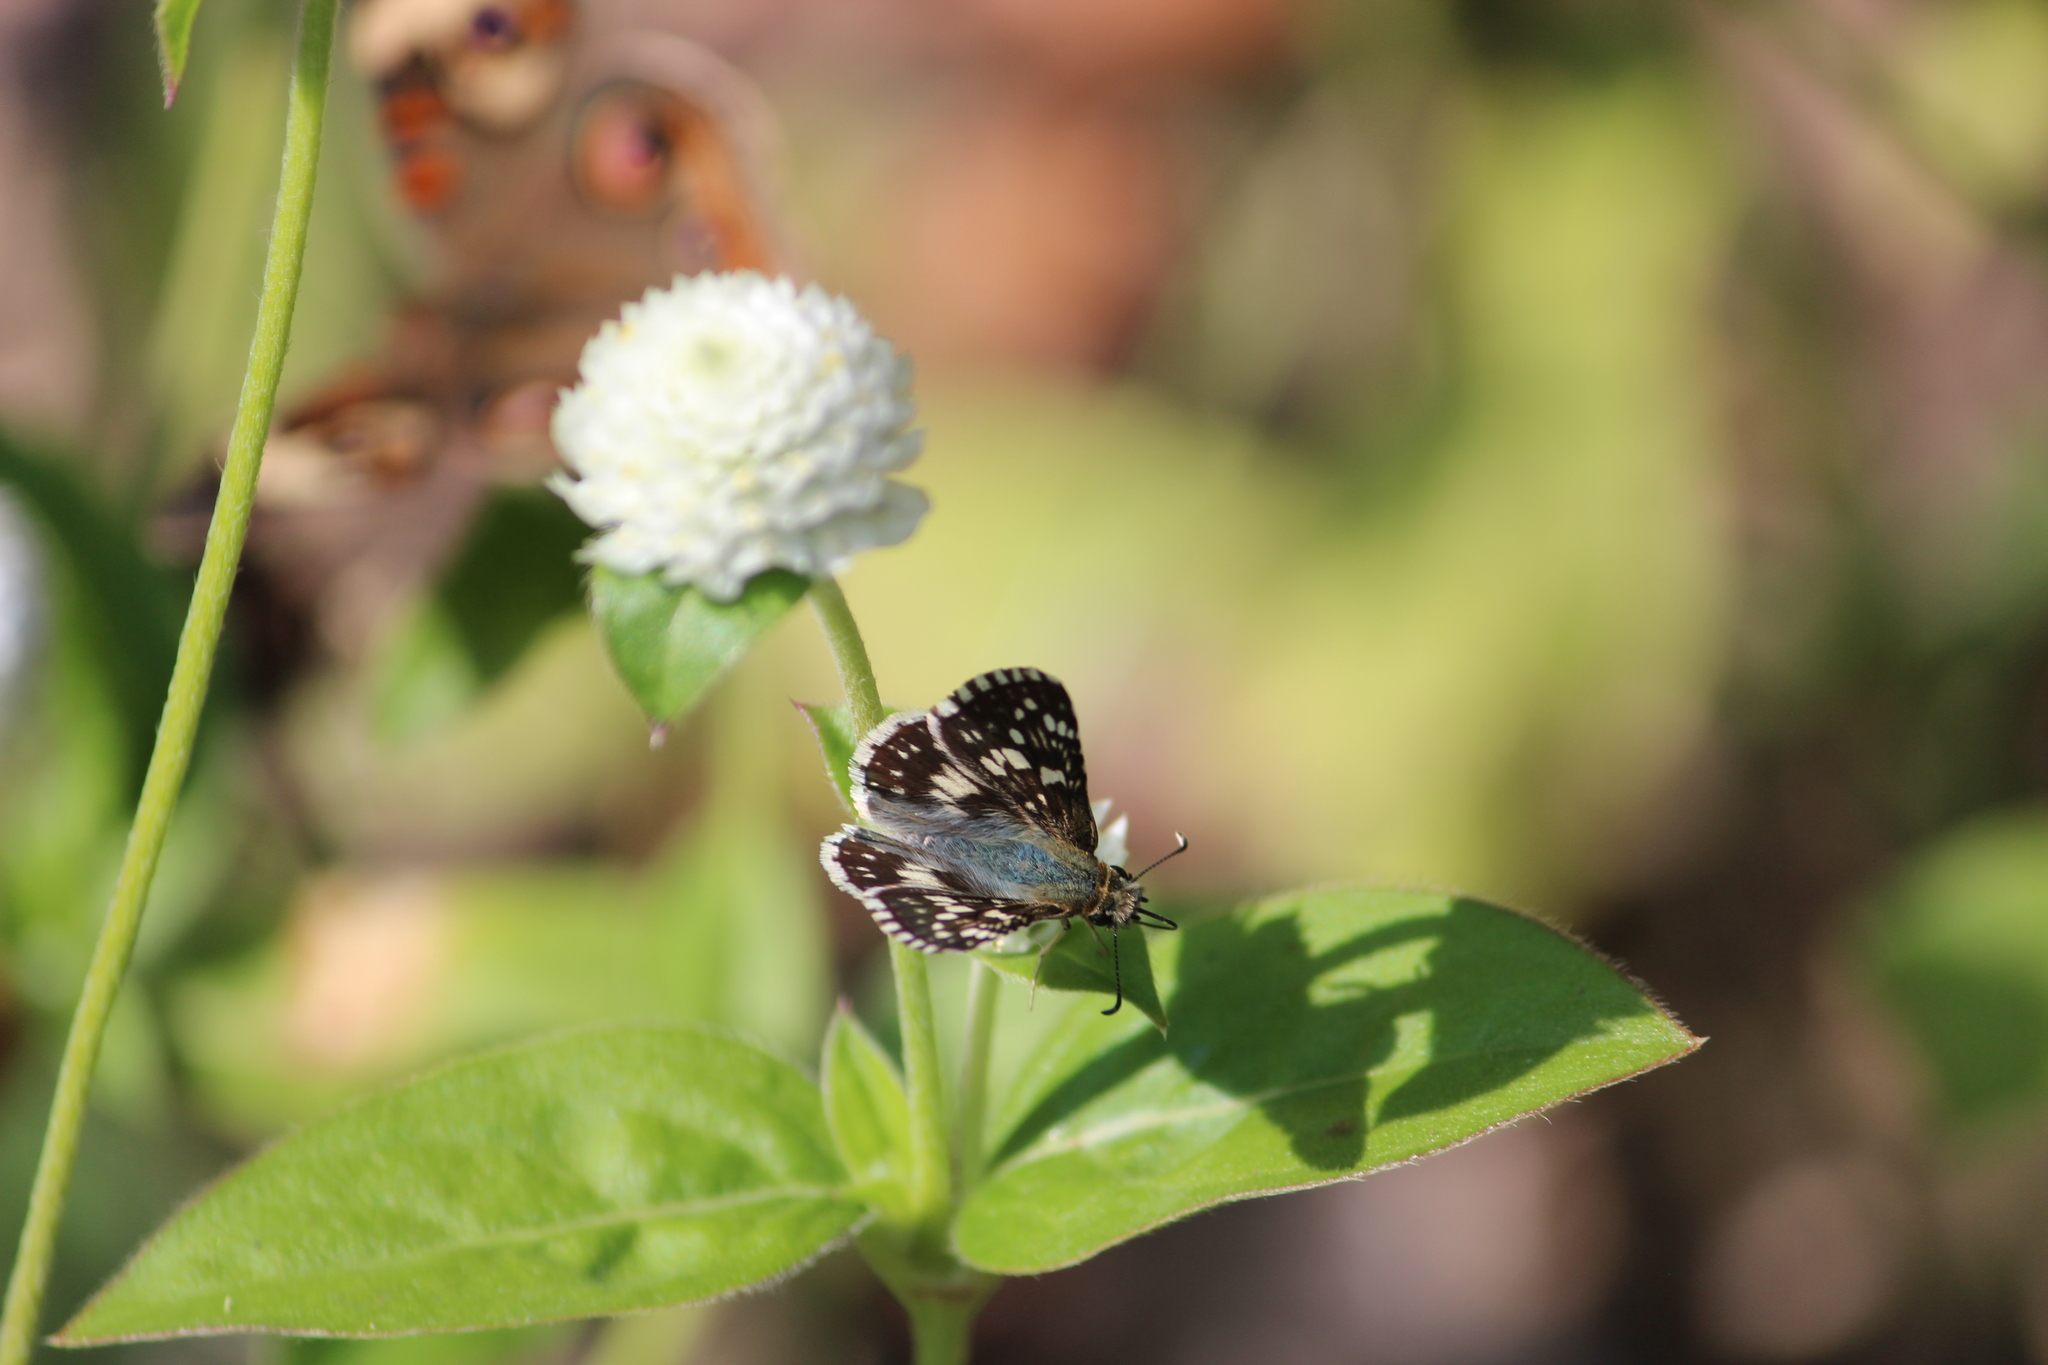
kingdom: Animalia
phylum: Arthropoda
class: Insecta
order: Lepidoptera
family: Hesperiidae
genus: Burnsius
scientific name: Burnsius communis
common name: Common checkered-skipper
